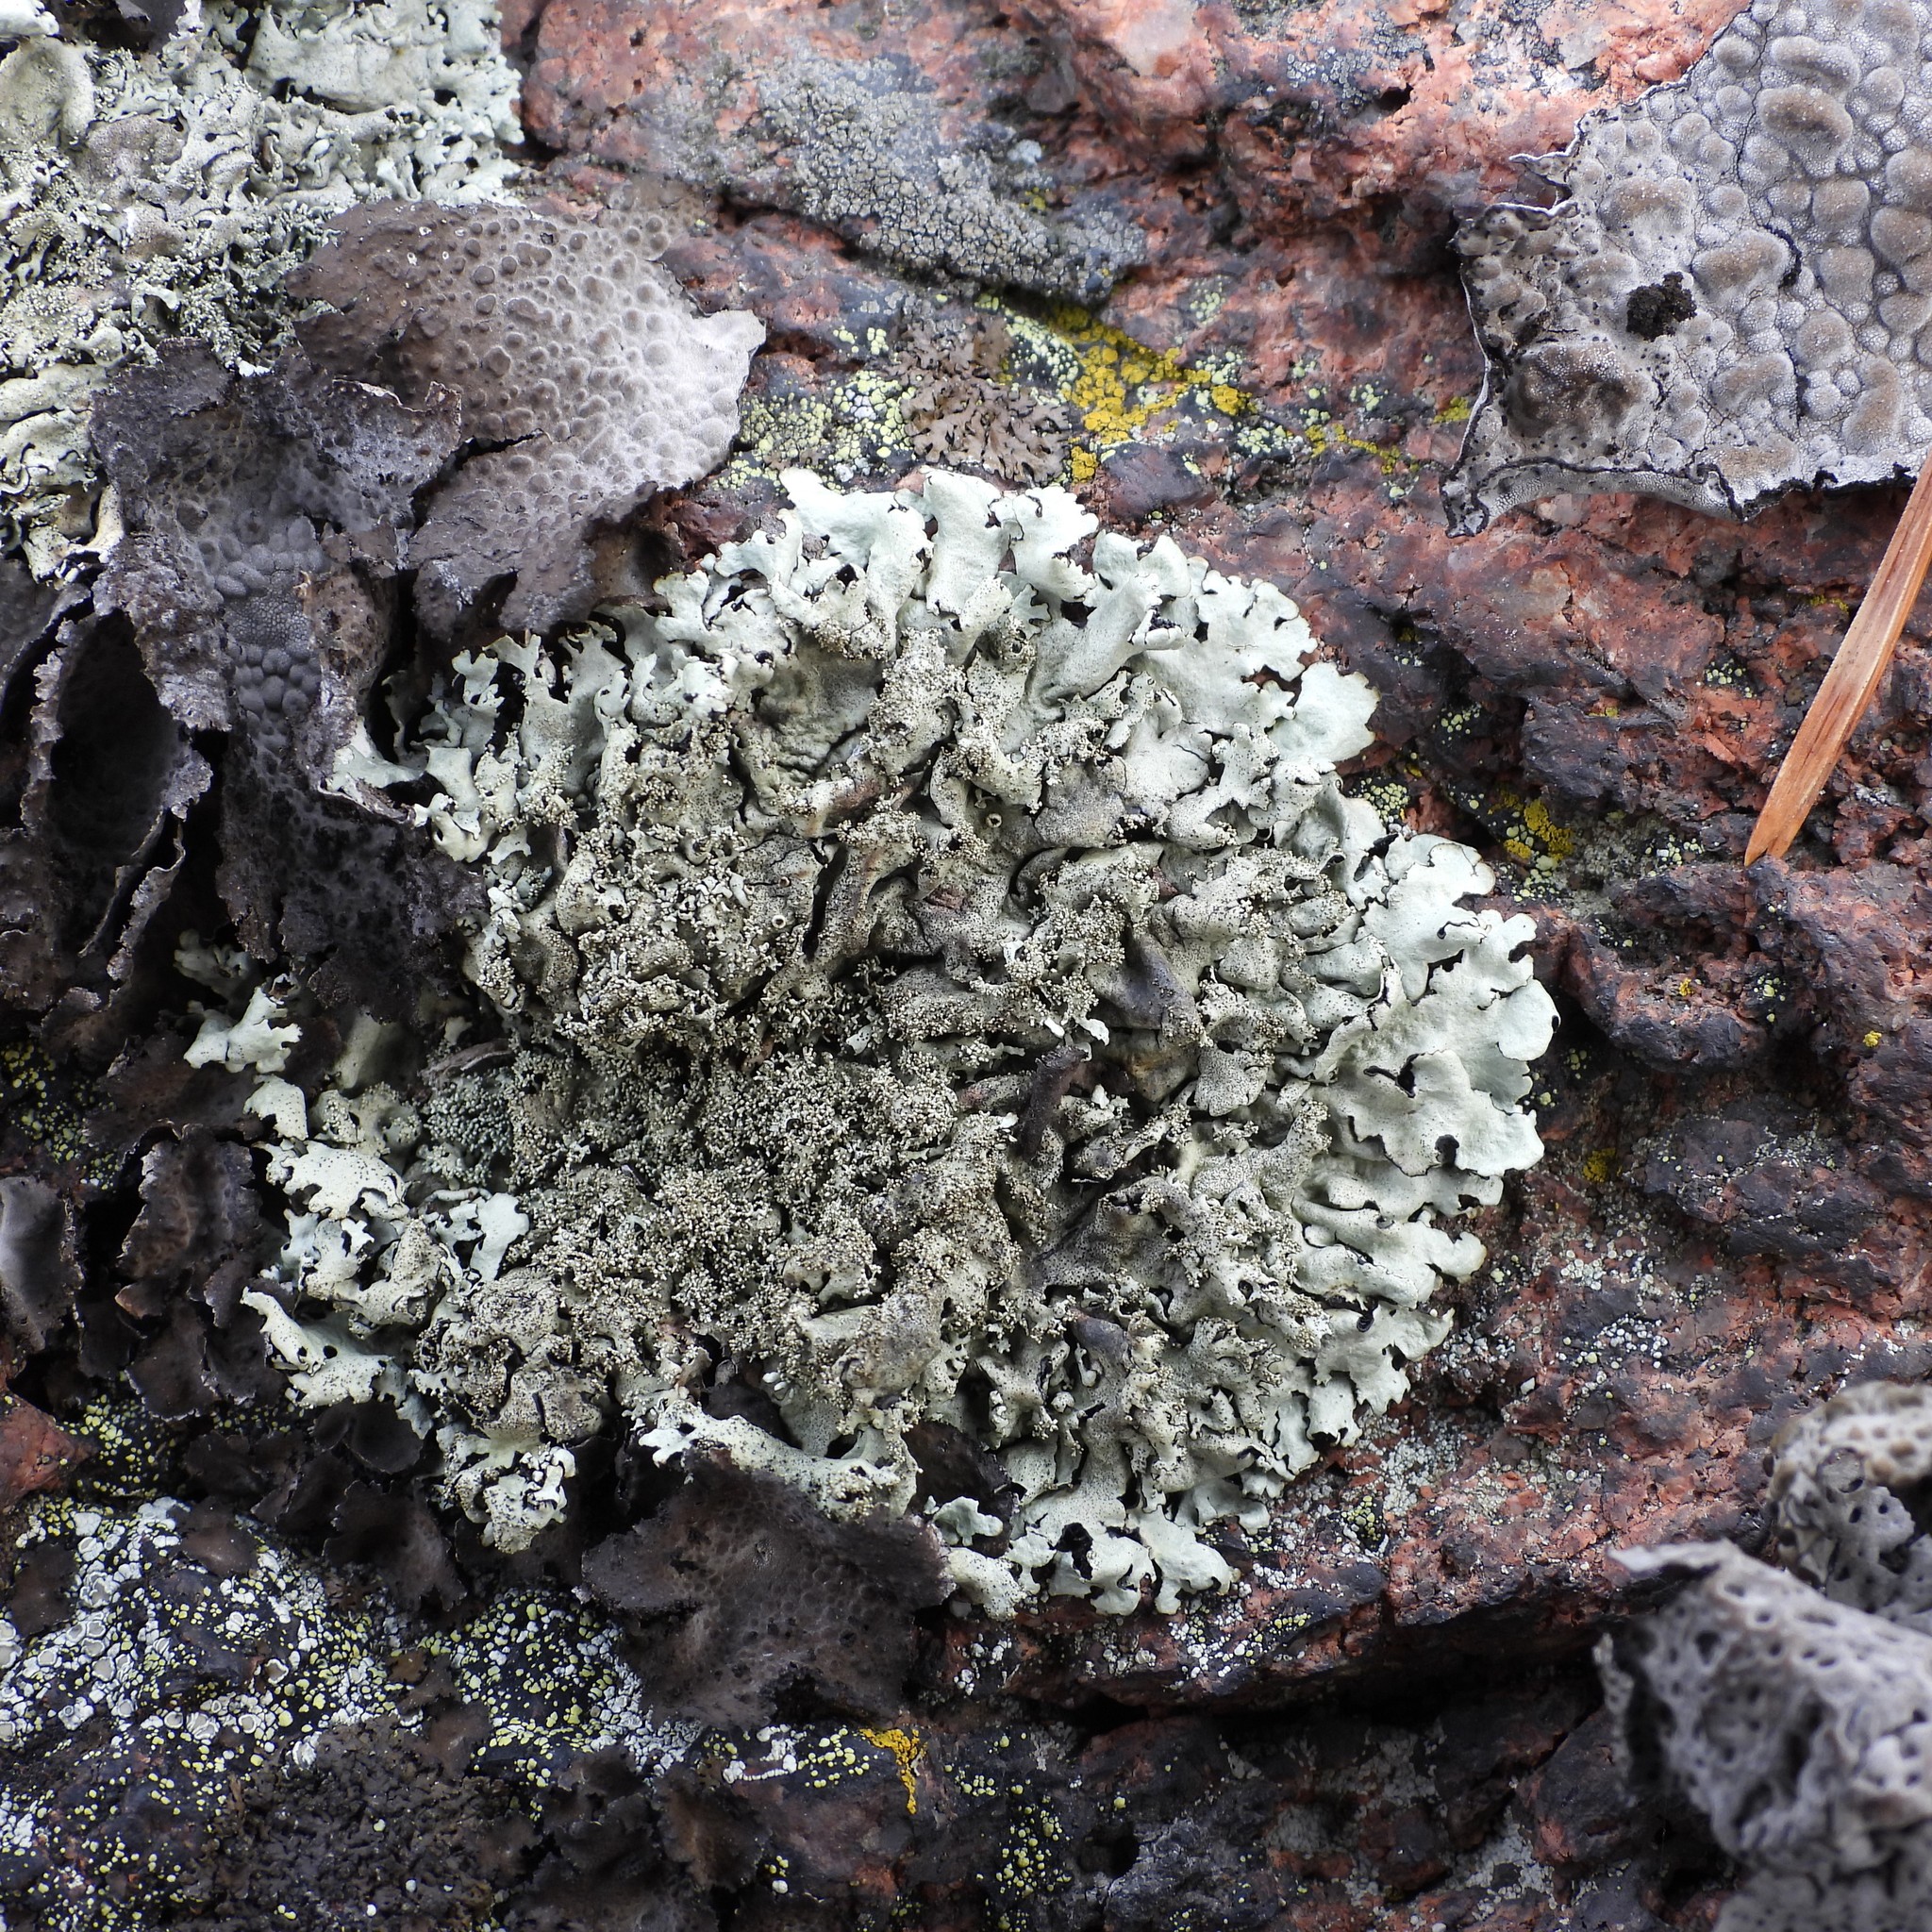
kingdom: Fungi
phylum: Ascomycota
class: Lecanoromycetes
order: Lecanorales
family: Parmeliaceae
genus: Xanthoparmelia
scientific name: Xanthoparmelia conspersa
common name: Peppered rock shield
